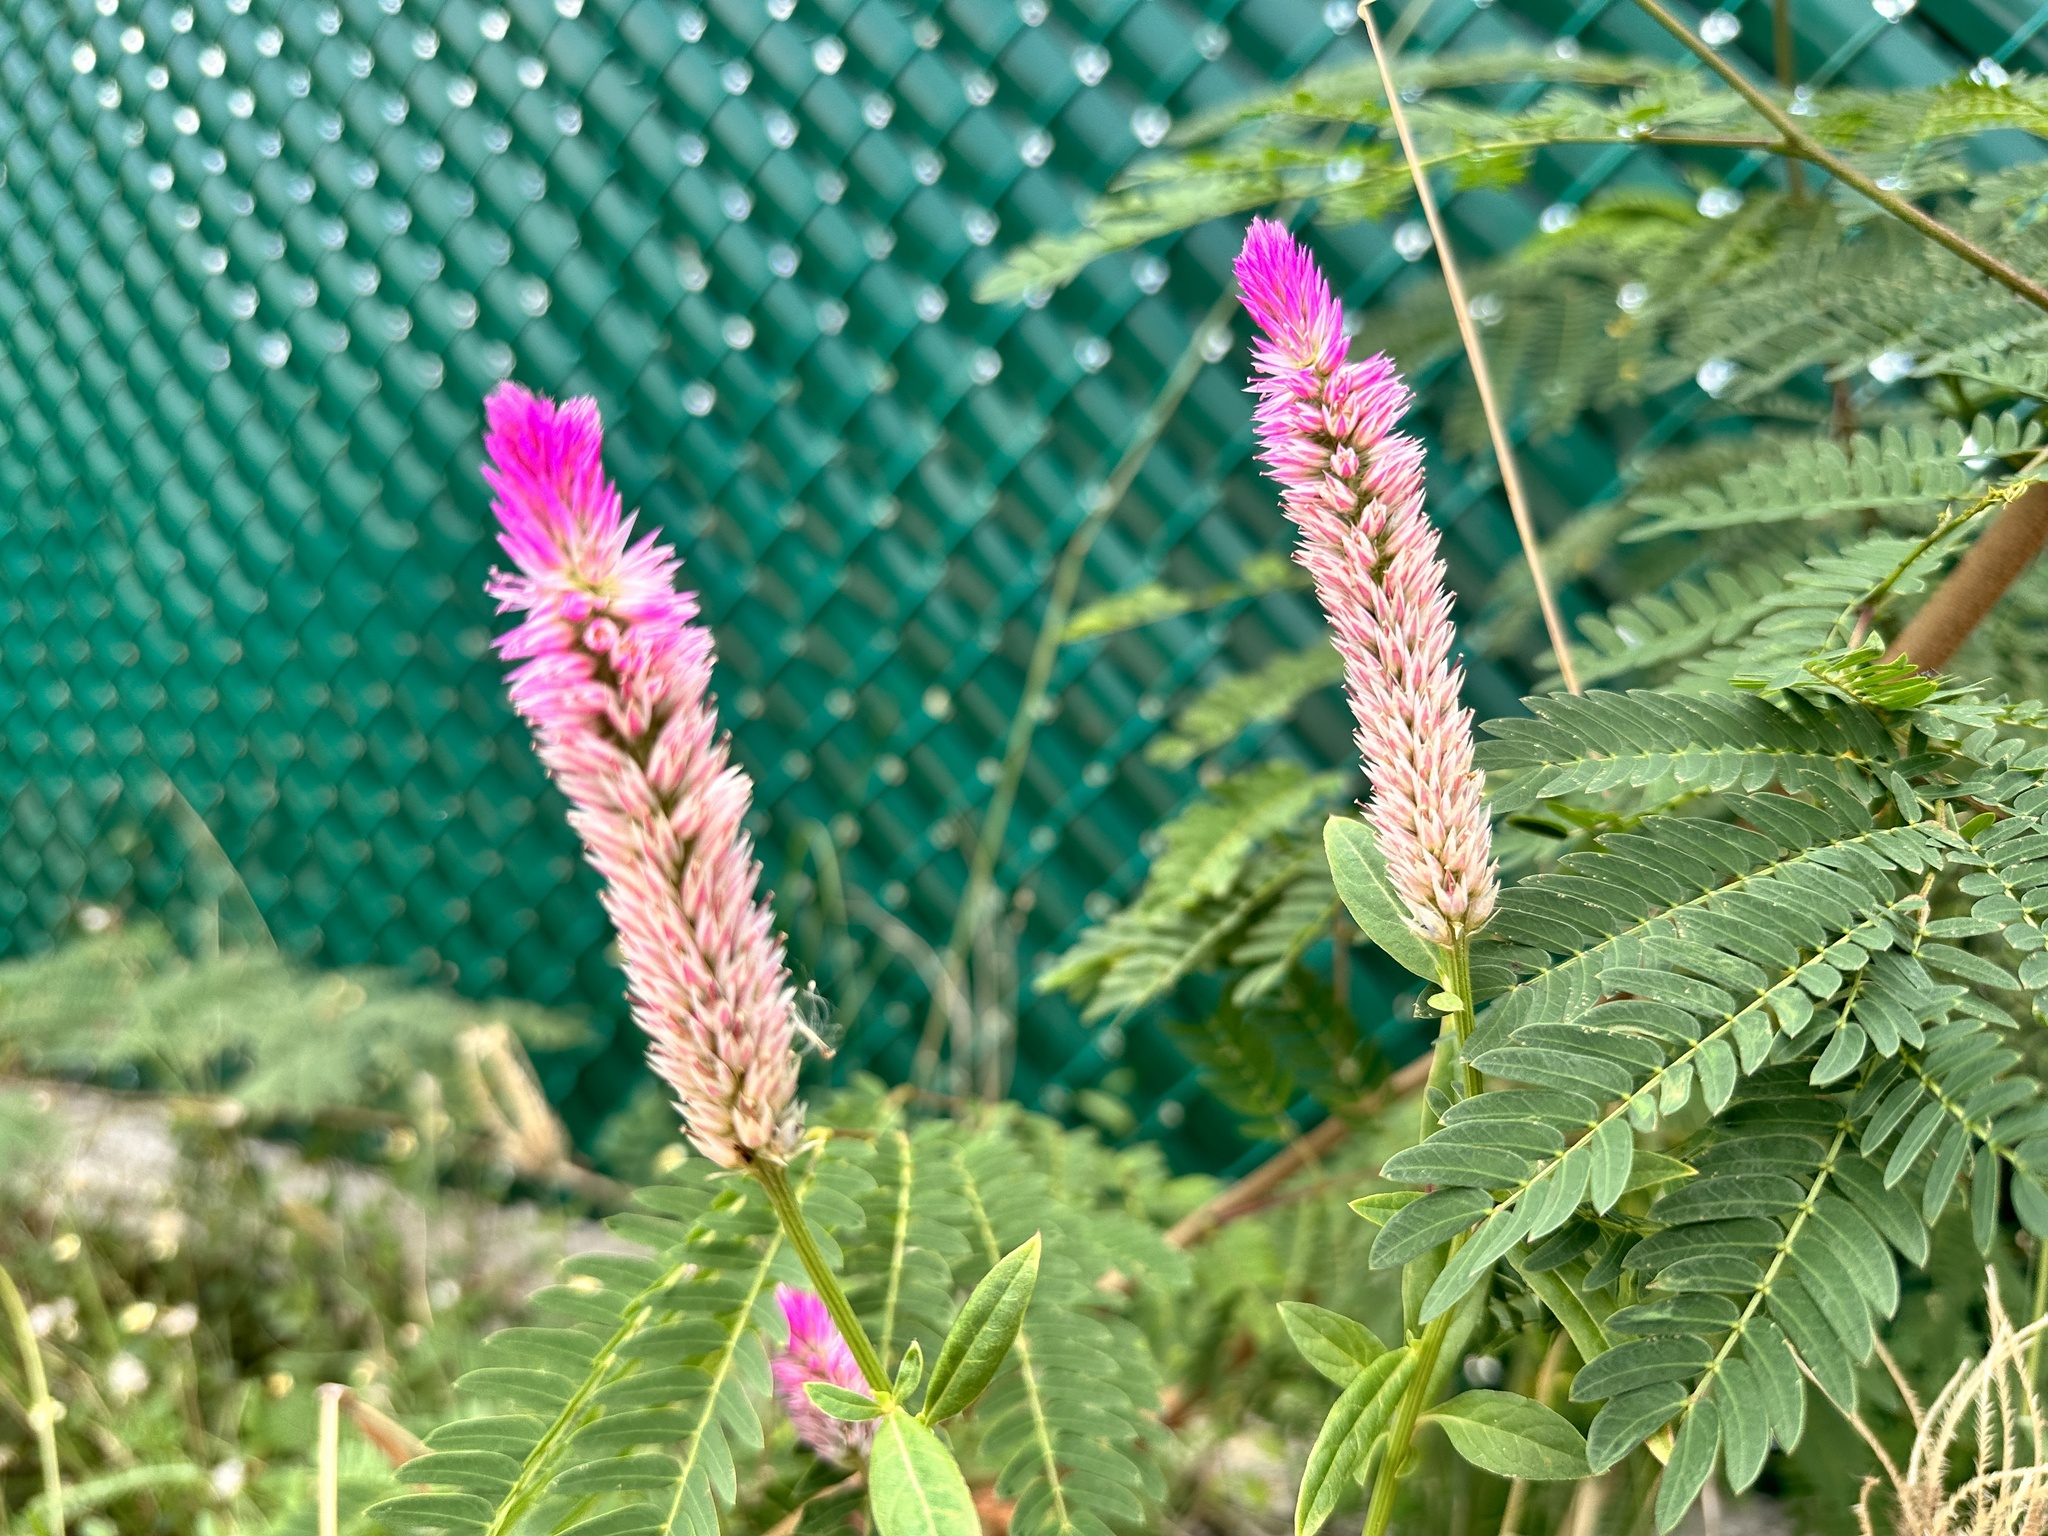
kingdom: Plantae
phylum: Tracheophyta
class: Magnoliopsida
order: Caryophyllales
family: Amaranthaceae
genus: Celosia
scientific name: Celosia argentea
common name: Feather cockscomb
